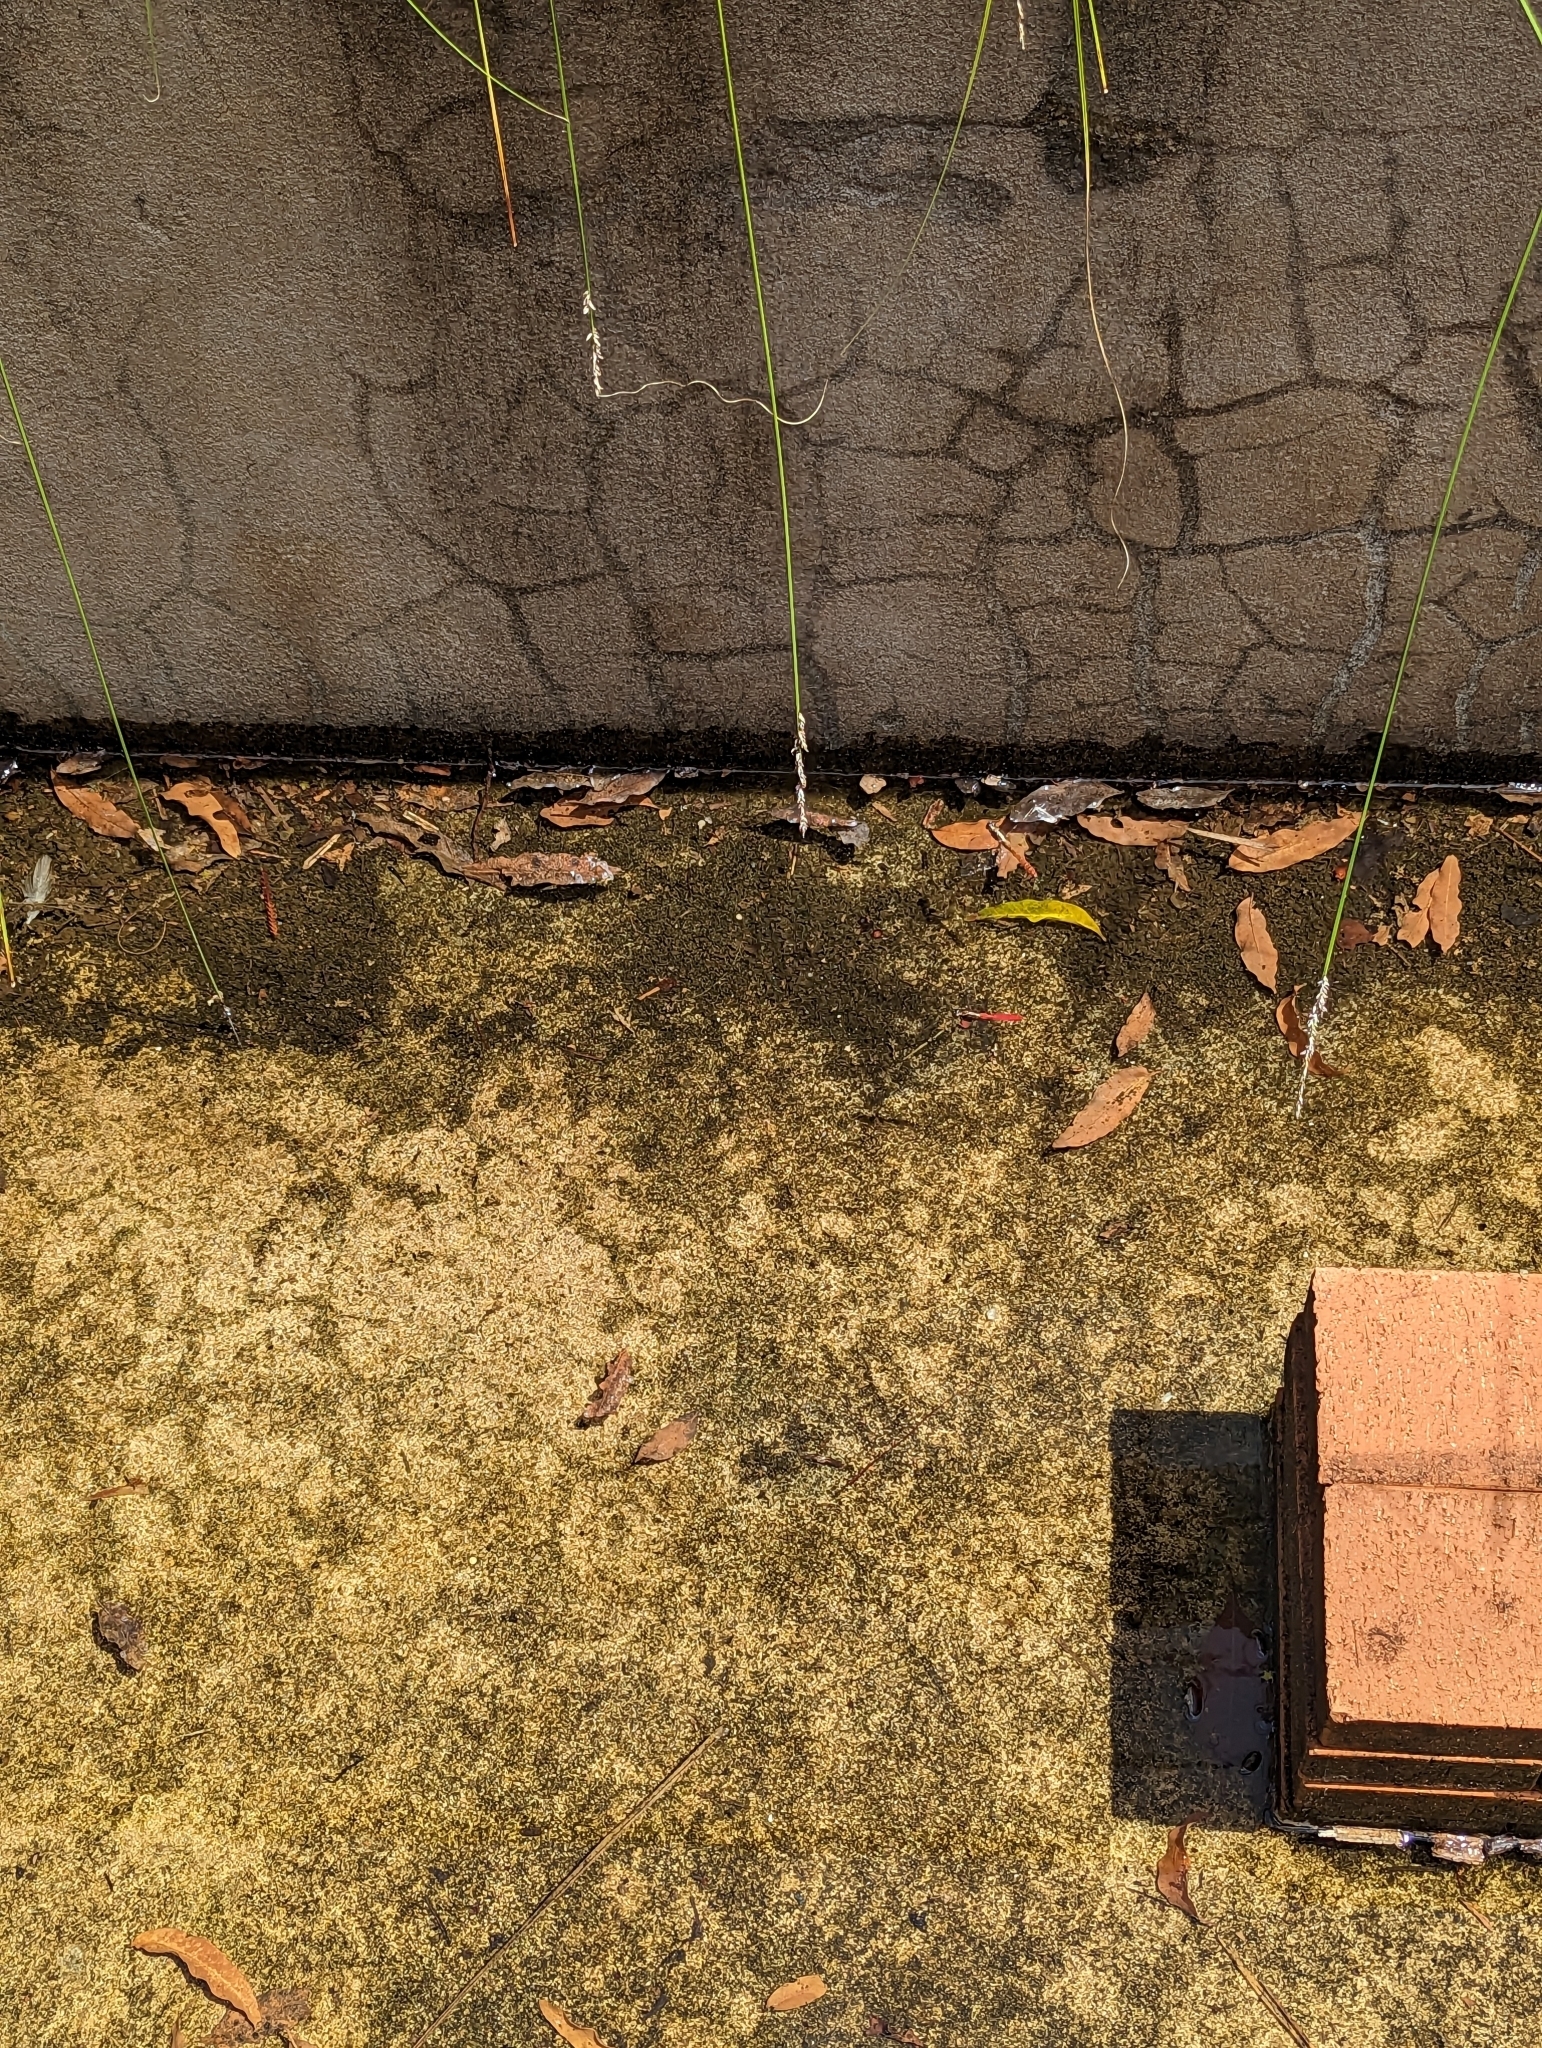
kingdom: Animalia
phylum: Arthropoda
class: Insecta
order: Odonata
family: Libellulidae
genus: Orthetrum
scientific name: Orthetrum villosovittatum
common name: Firery skimmer
